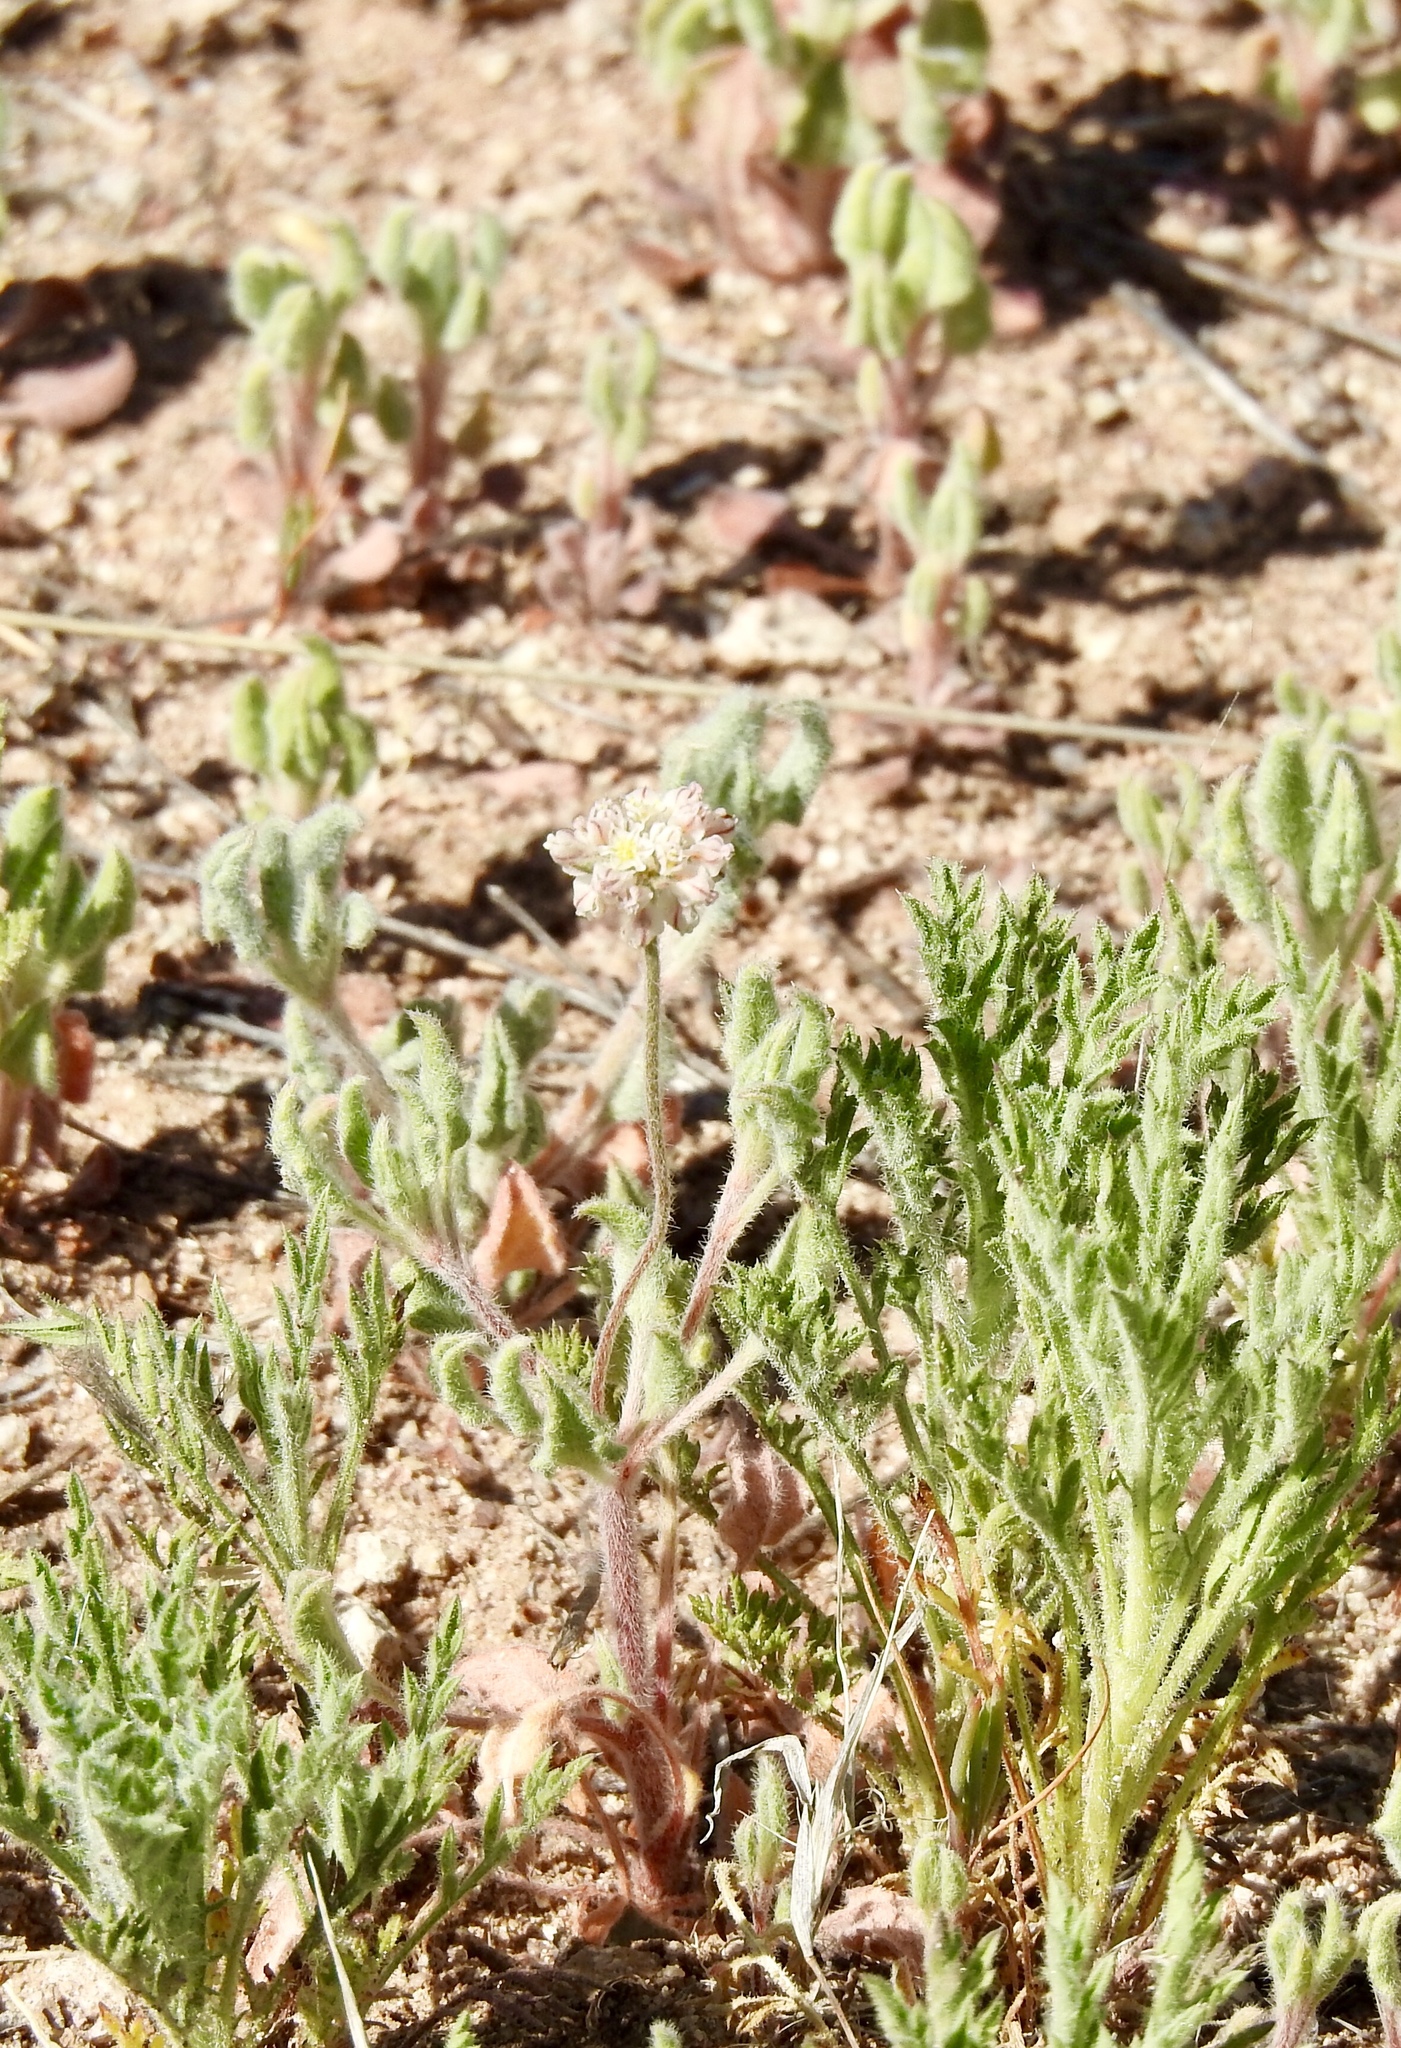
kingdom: Plantae
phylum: Tracheophyta
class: Magnoliopsida
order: Caryophyllales
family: Polygonaceae
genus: Eriogonum
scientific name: Eriogonum abertianum
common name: Abert's wild buckwheat
